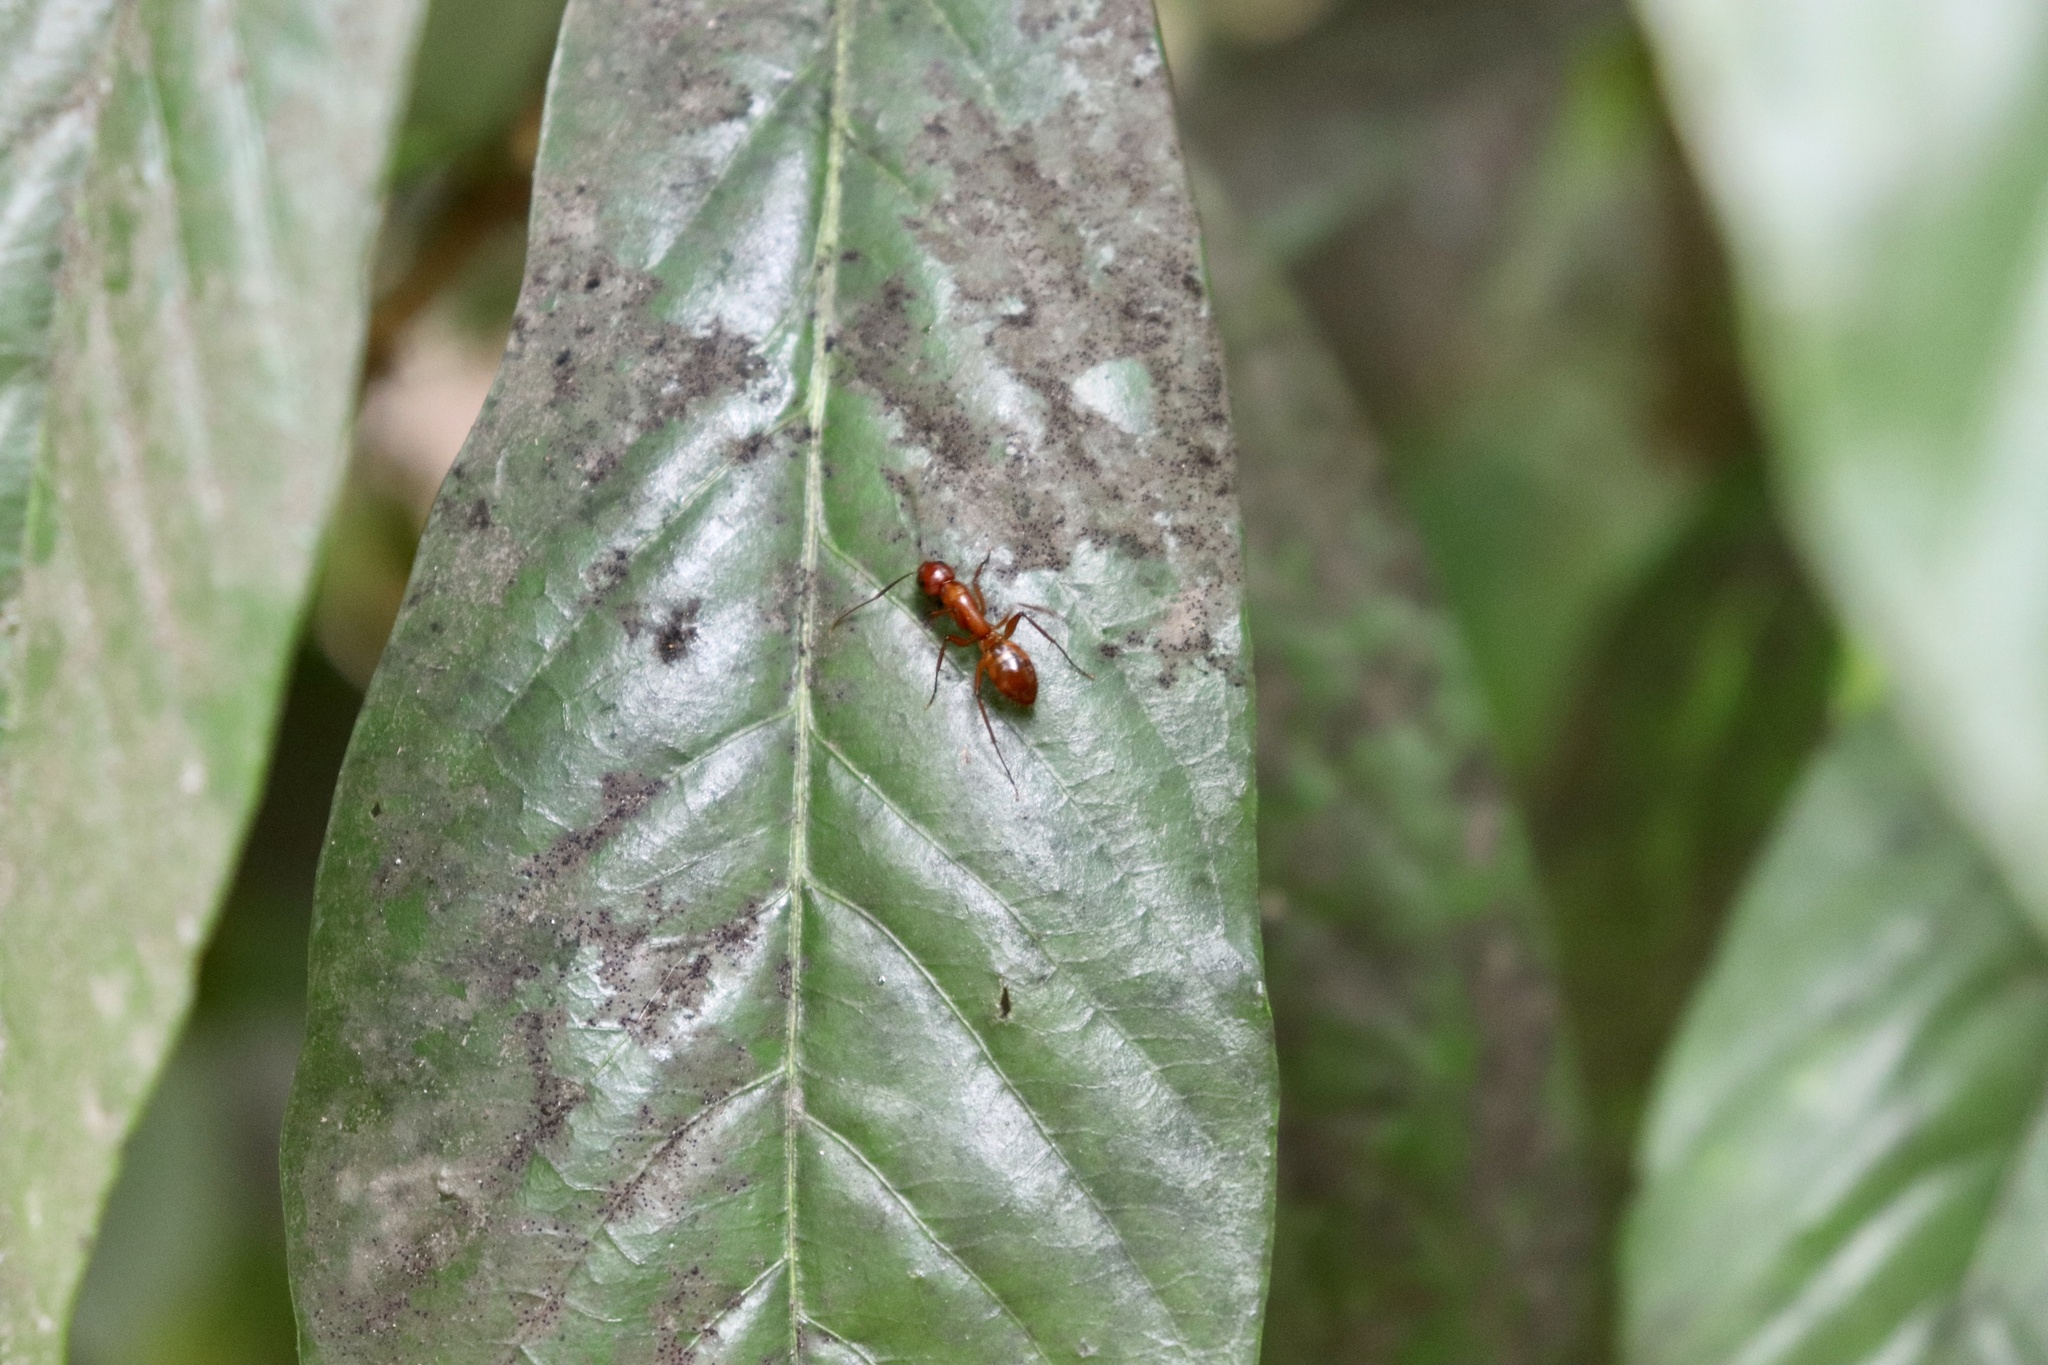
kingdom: Animalia
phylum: Arthropoda
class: Insecta
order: Hymenoptera
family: Formicidae
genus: Camponotus
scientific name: Camponotus castaneus
